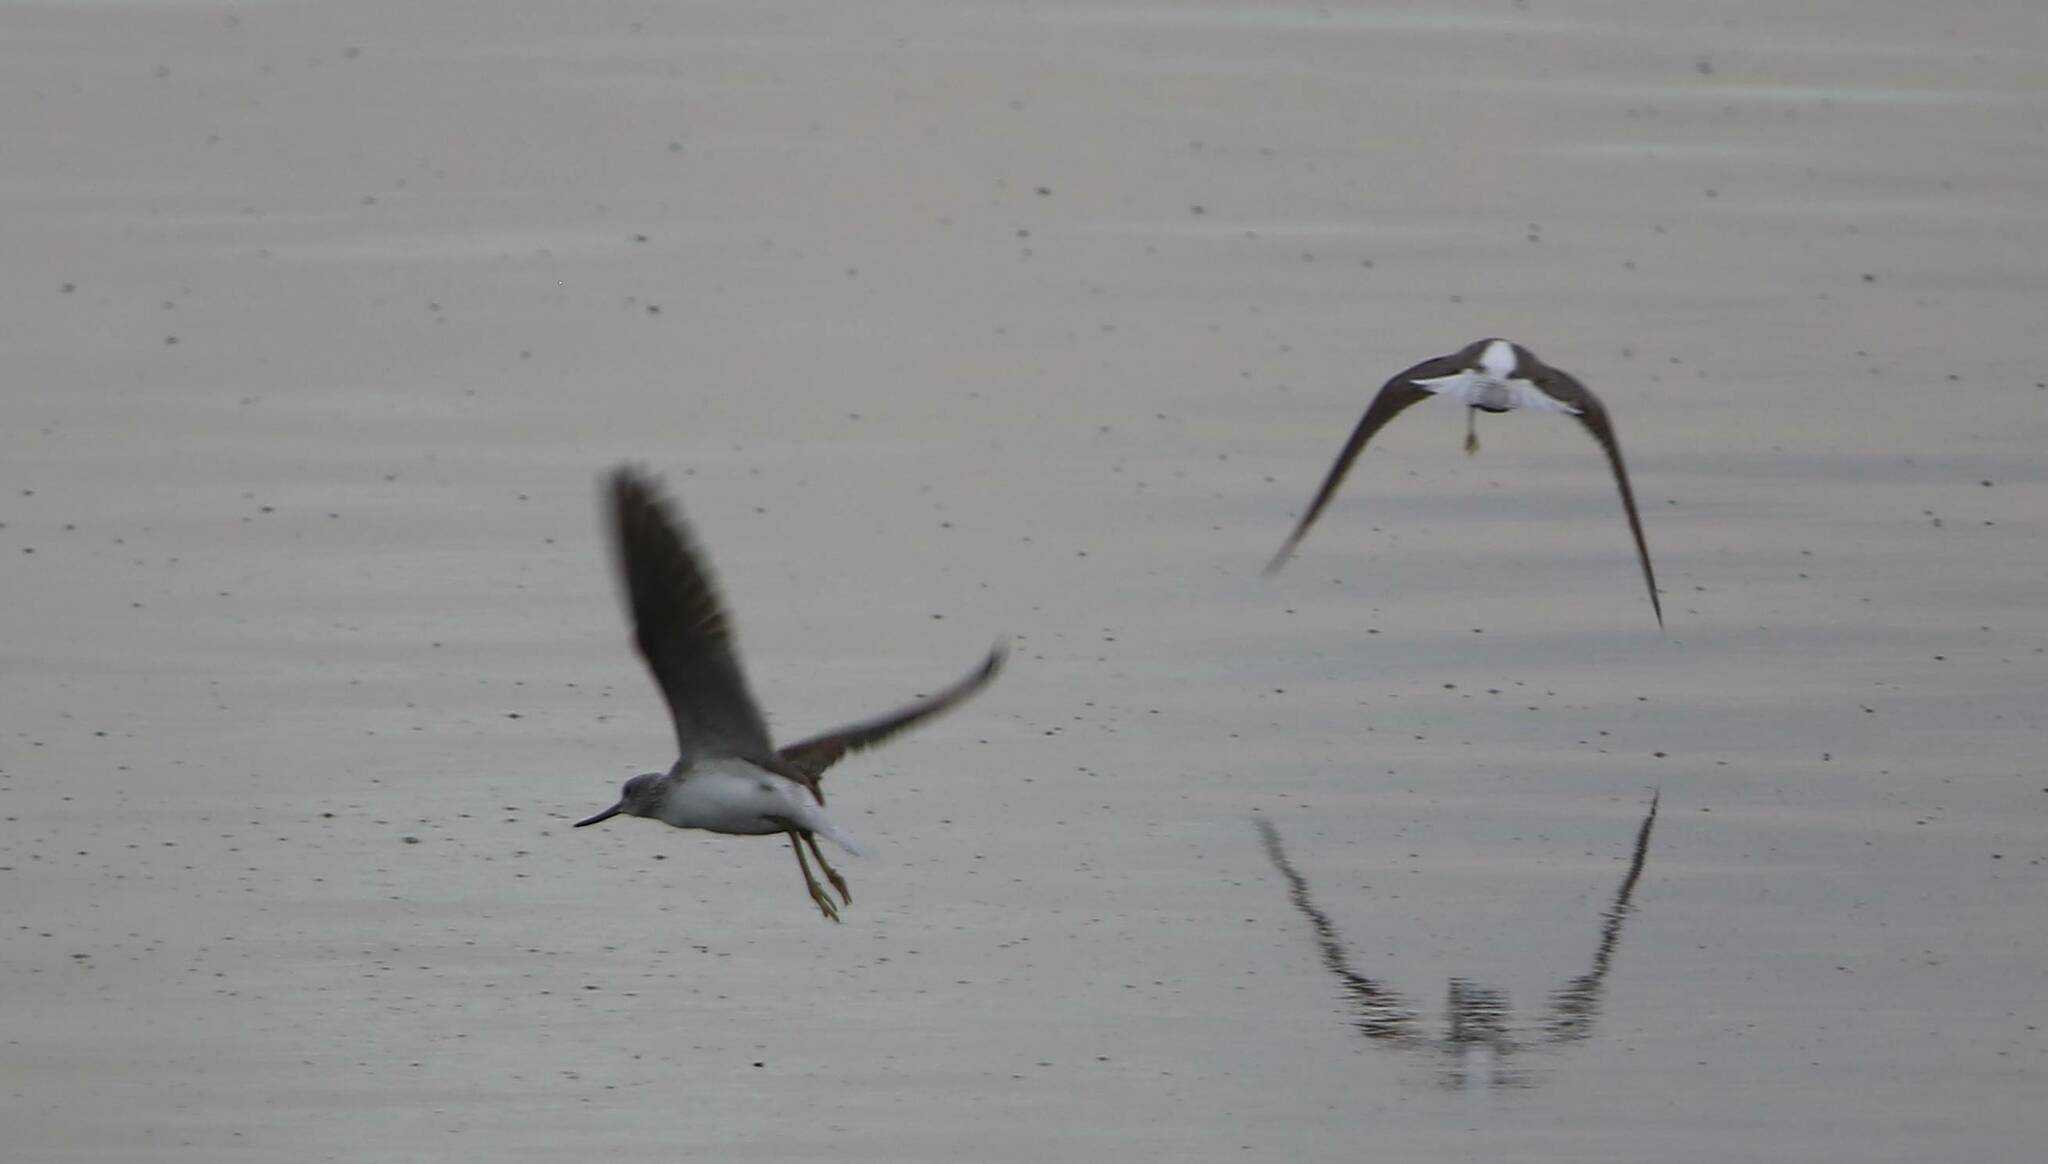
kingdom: Animalia
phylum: Chordata
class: Aves
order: Charadriiformes
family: Scolopacidae
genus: Tringa
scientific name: Tringa nebularia
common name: Common greenshank
